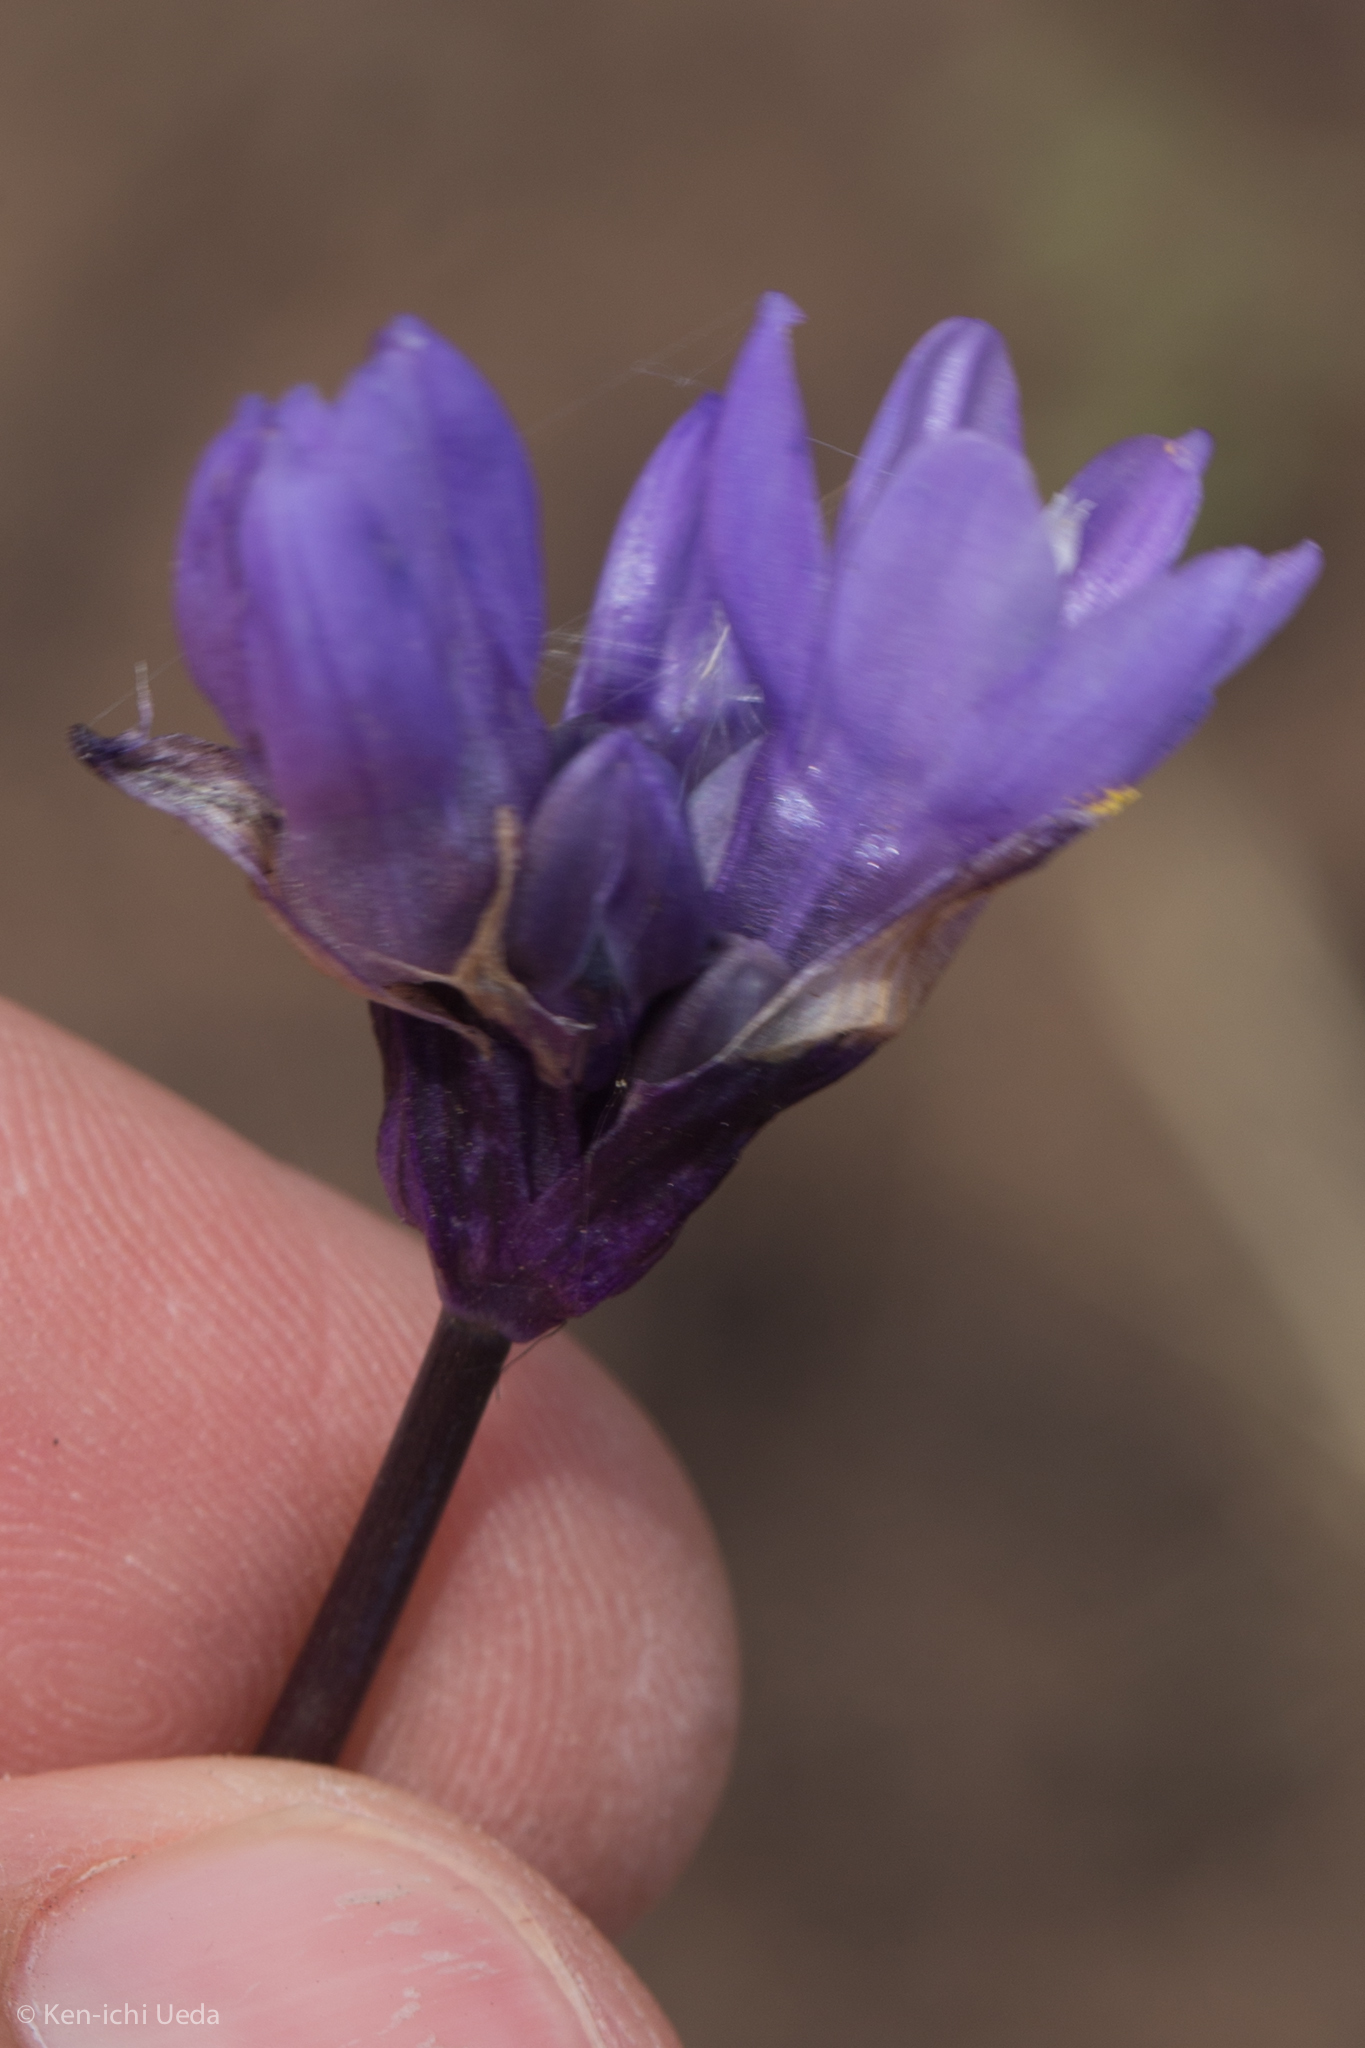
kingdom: Plantae
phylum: Tracheophyta
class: Liliopsida
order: Asparagales
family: Asparagaceae
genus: Dipterostemon
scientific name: Dipterostemon capitatus
